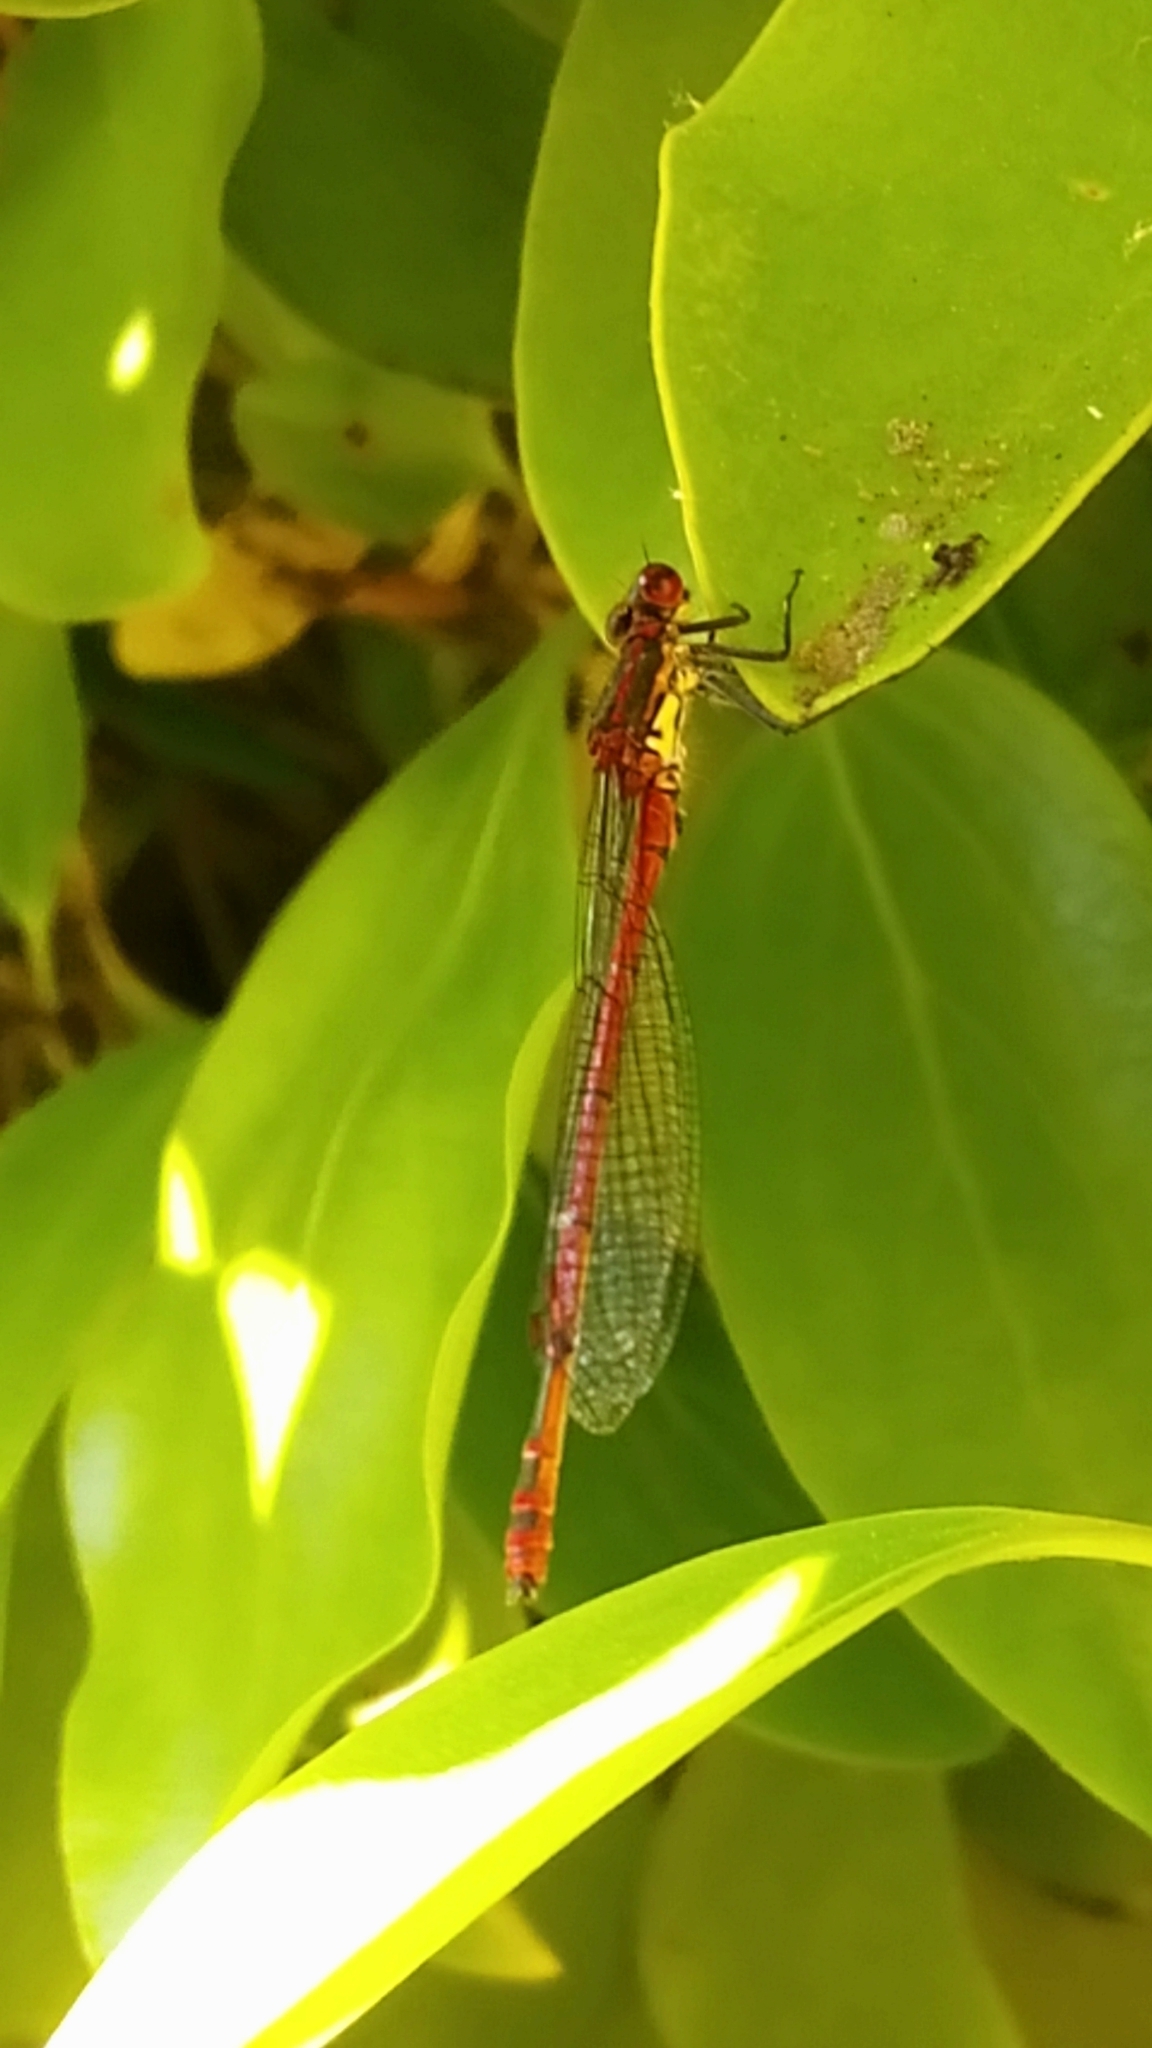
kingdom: Animalia
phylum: Arthropoda
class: Insecta
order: Odonata
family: Coenagrionidae
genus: Pyrrhosoma
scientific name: Pyrrhosoma nymphula
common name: Large red damsel
